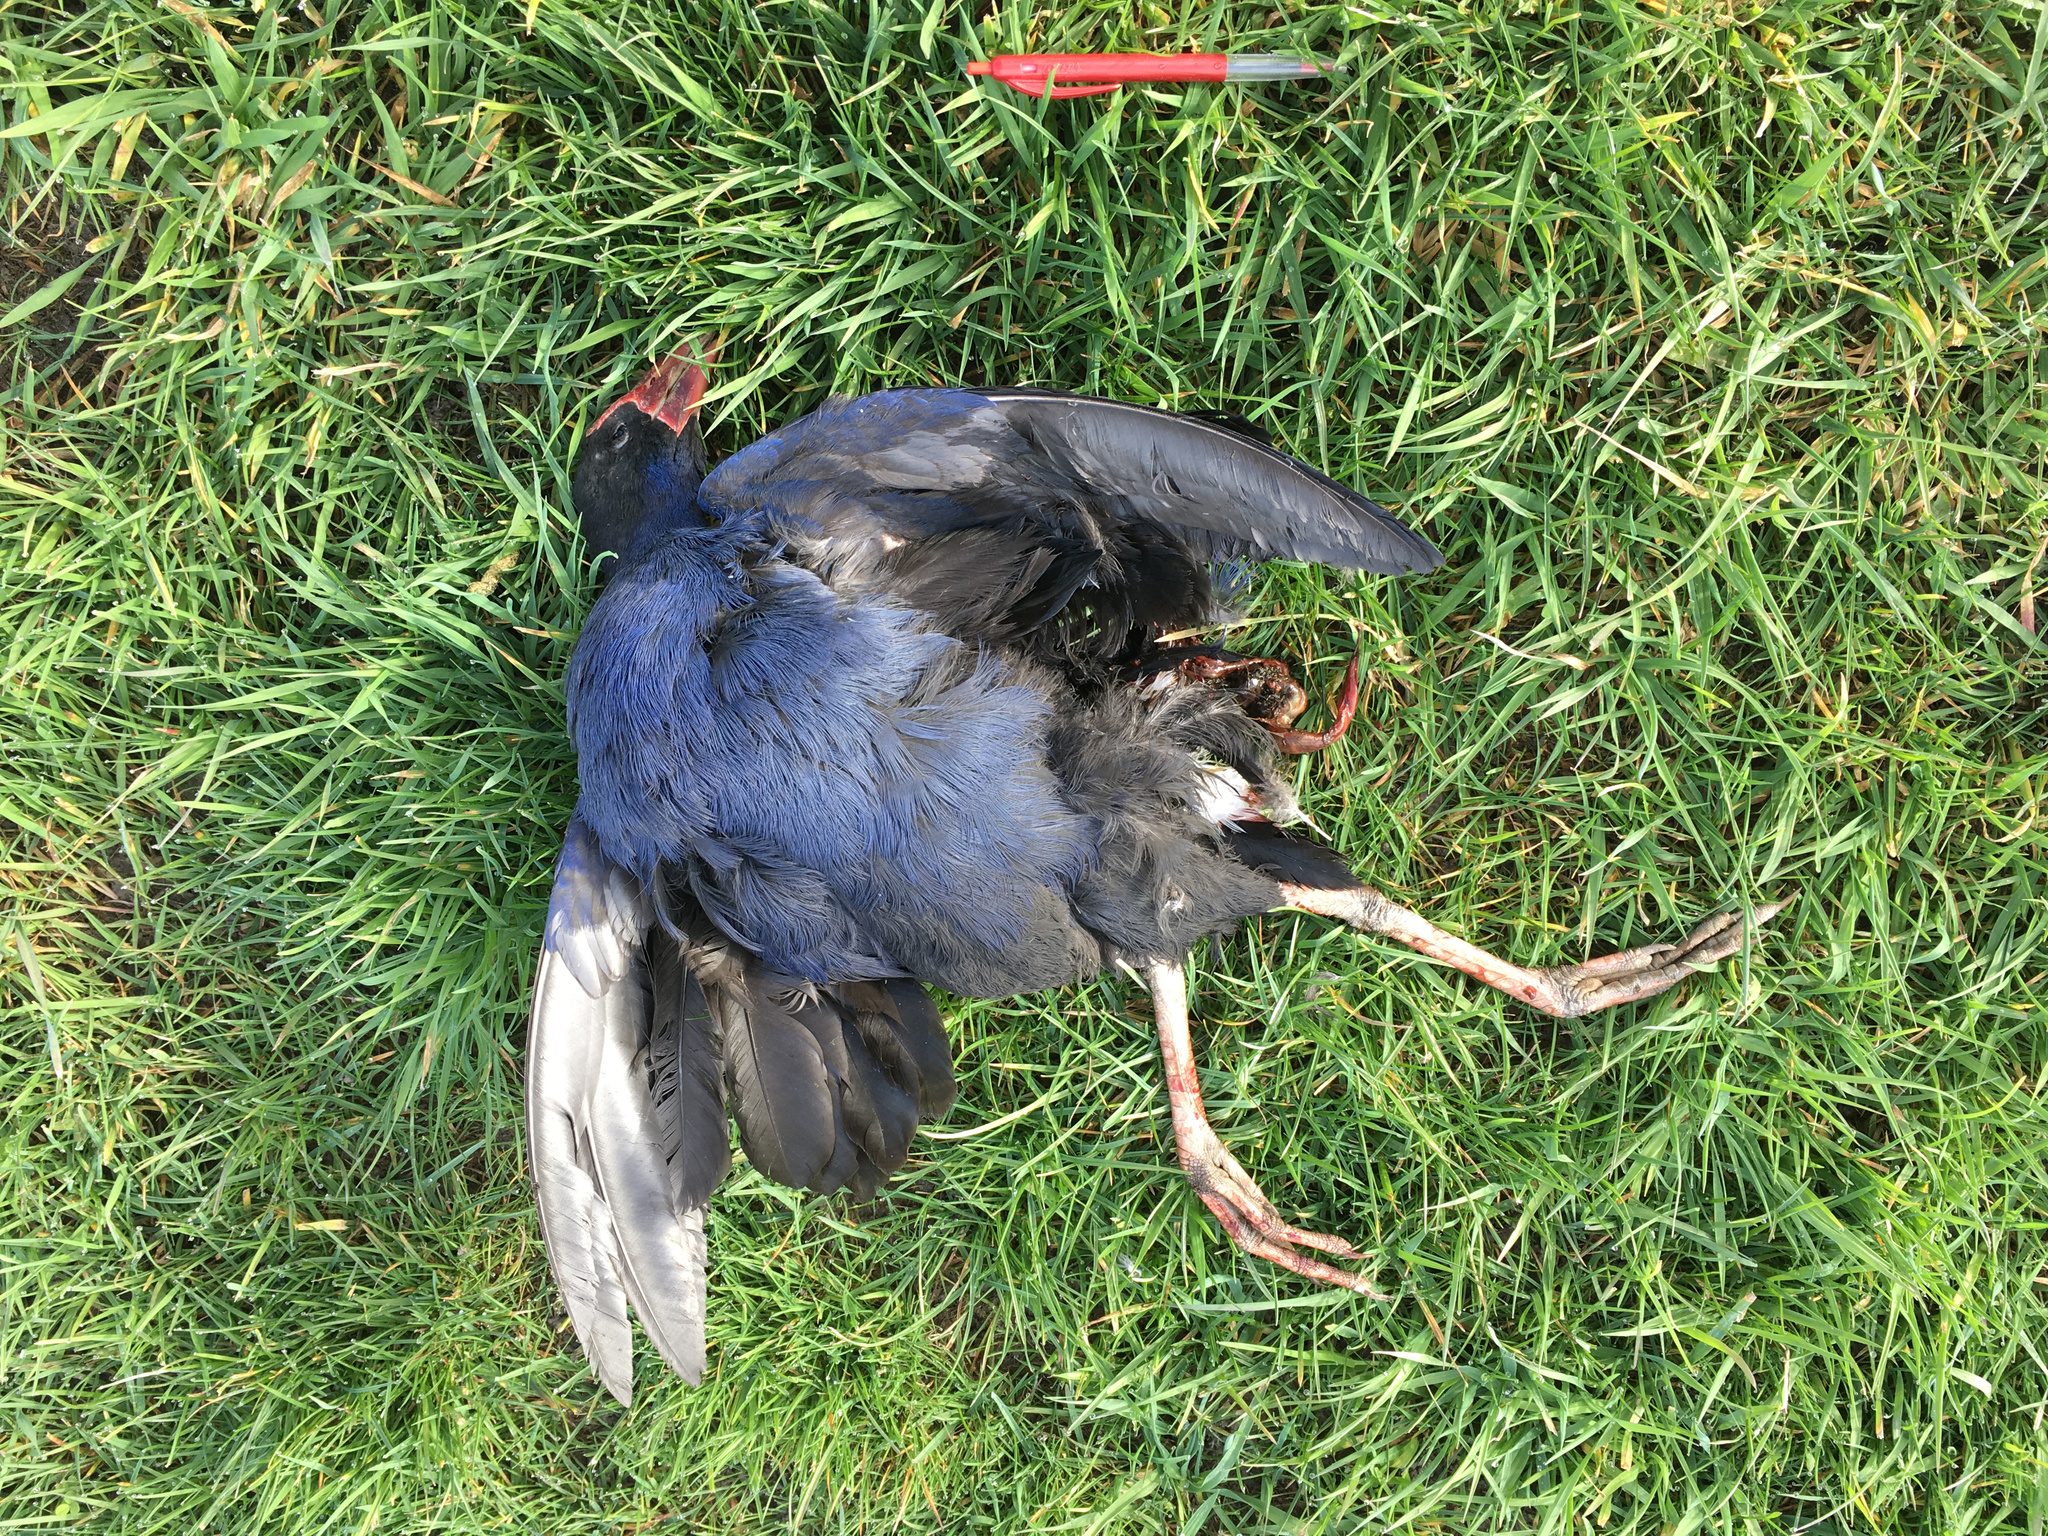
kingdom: Animalia
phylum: Chordata
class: Aves
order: Gruiformes
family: Rallidae
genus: Porphyrio
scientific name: Porphyrio melanotus
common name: Australasian swamphen
